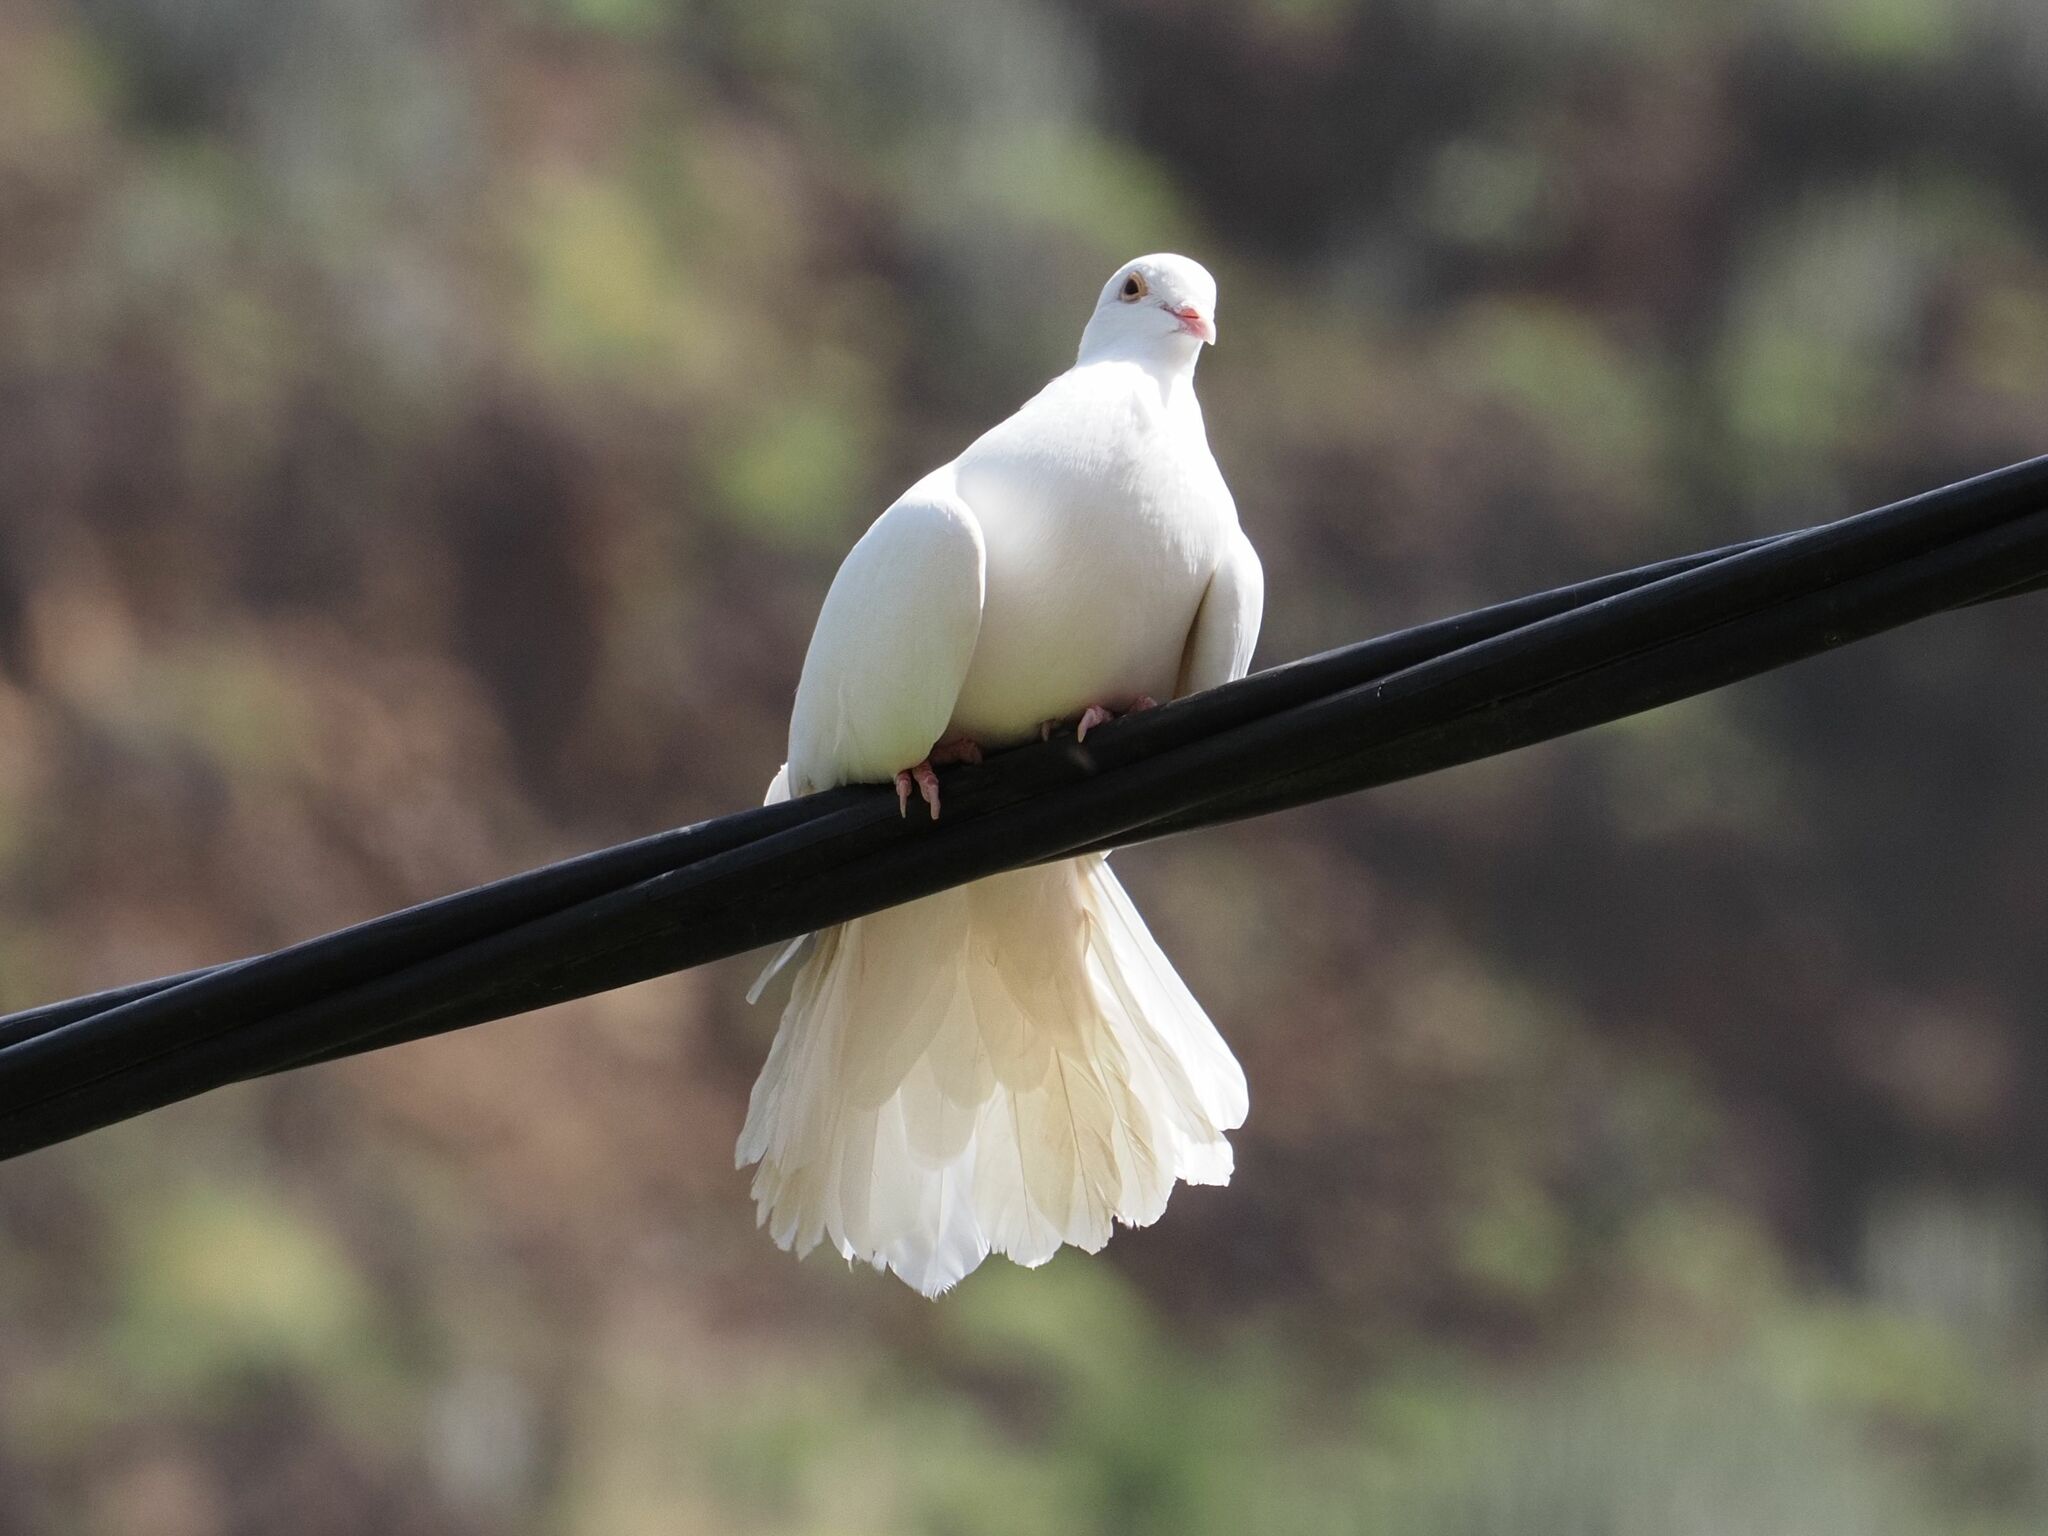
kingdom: Animalia
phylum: Chordata
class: Aves
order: Columbiformes
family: Columbidae
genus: Columba
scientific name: Columba livia
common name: Rock pigeon
